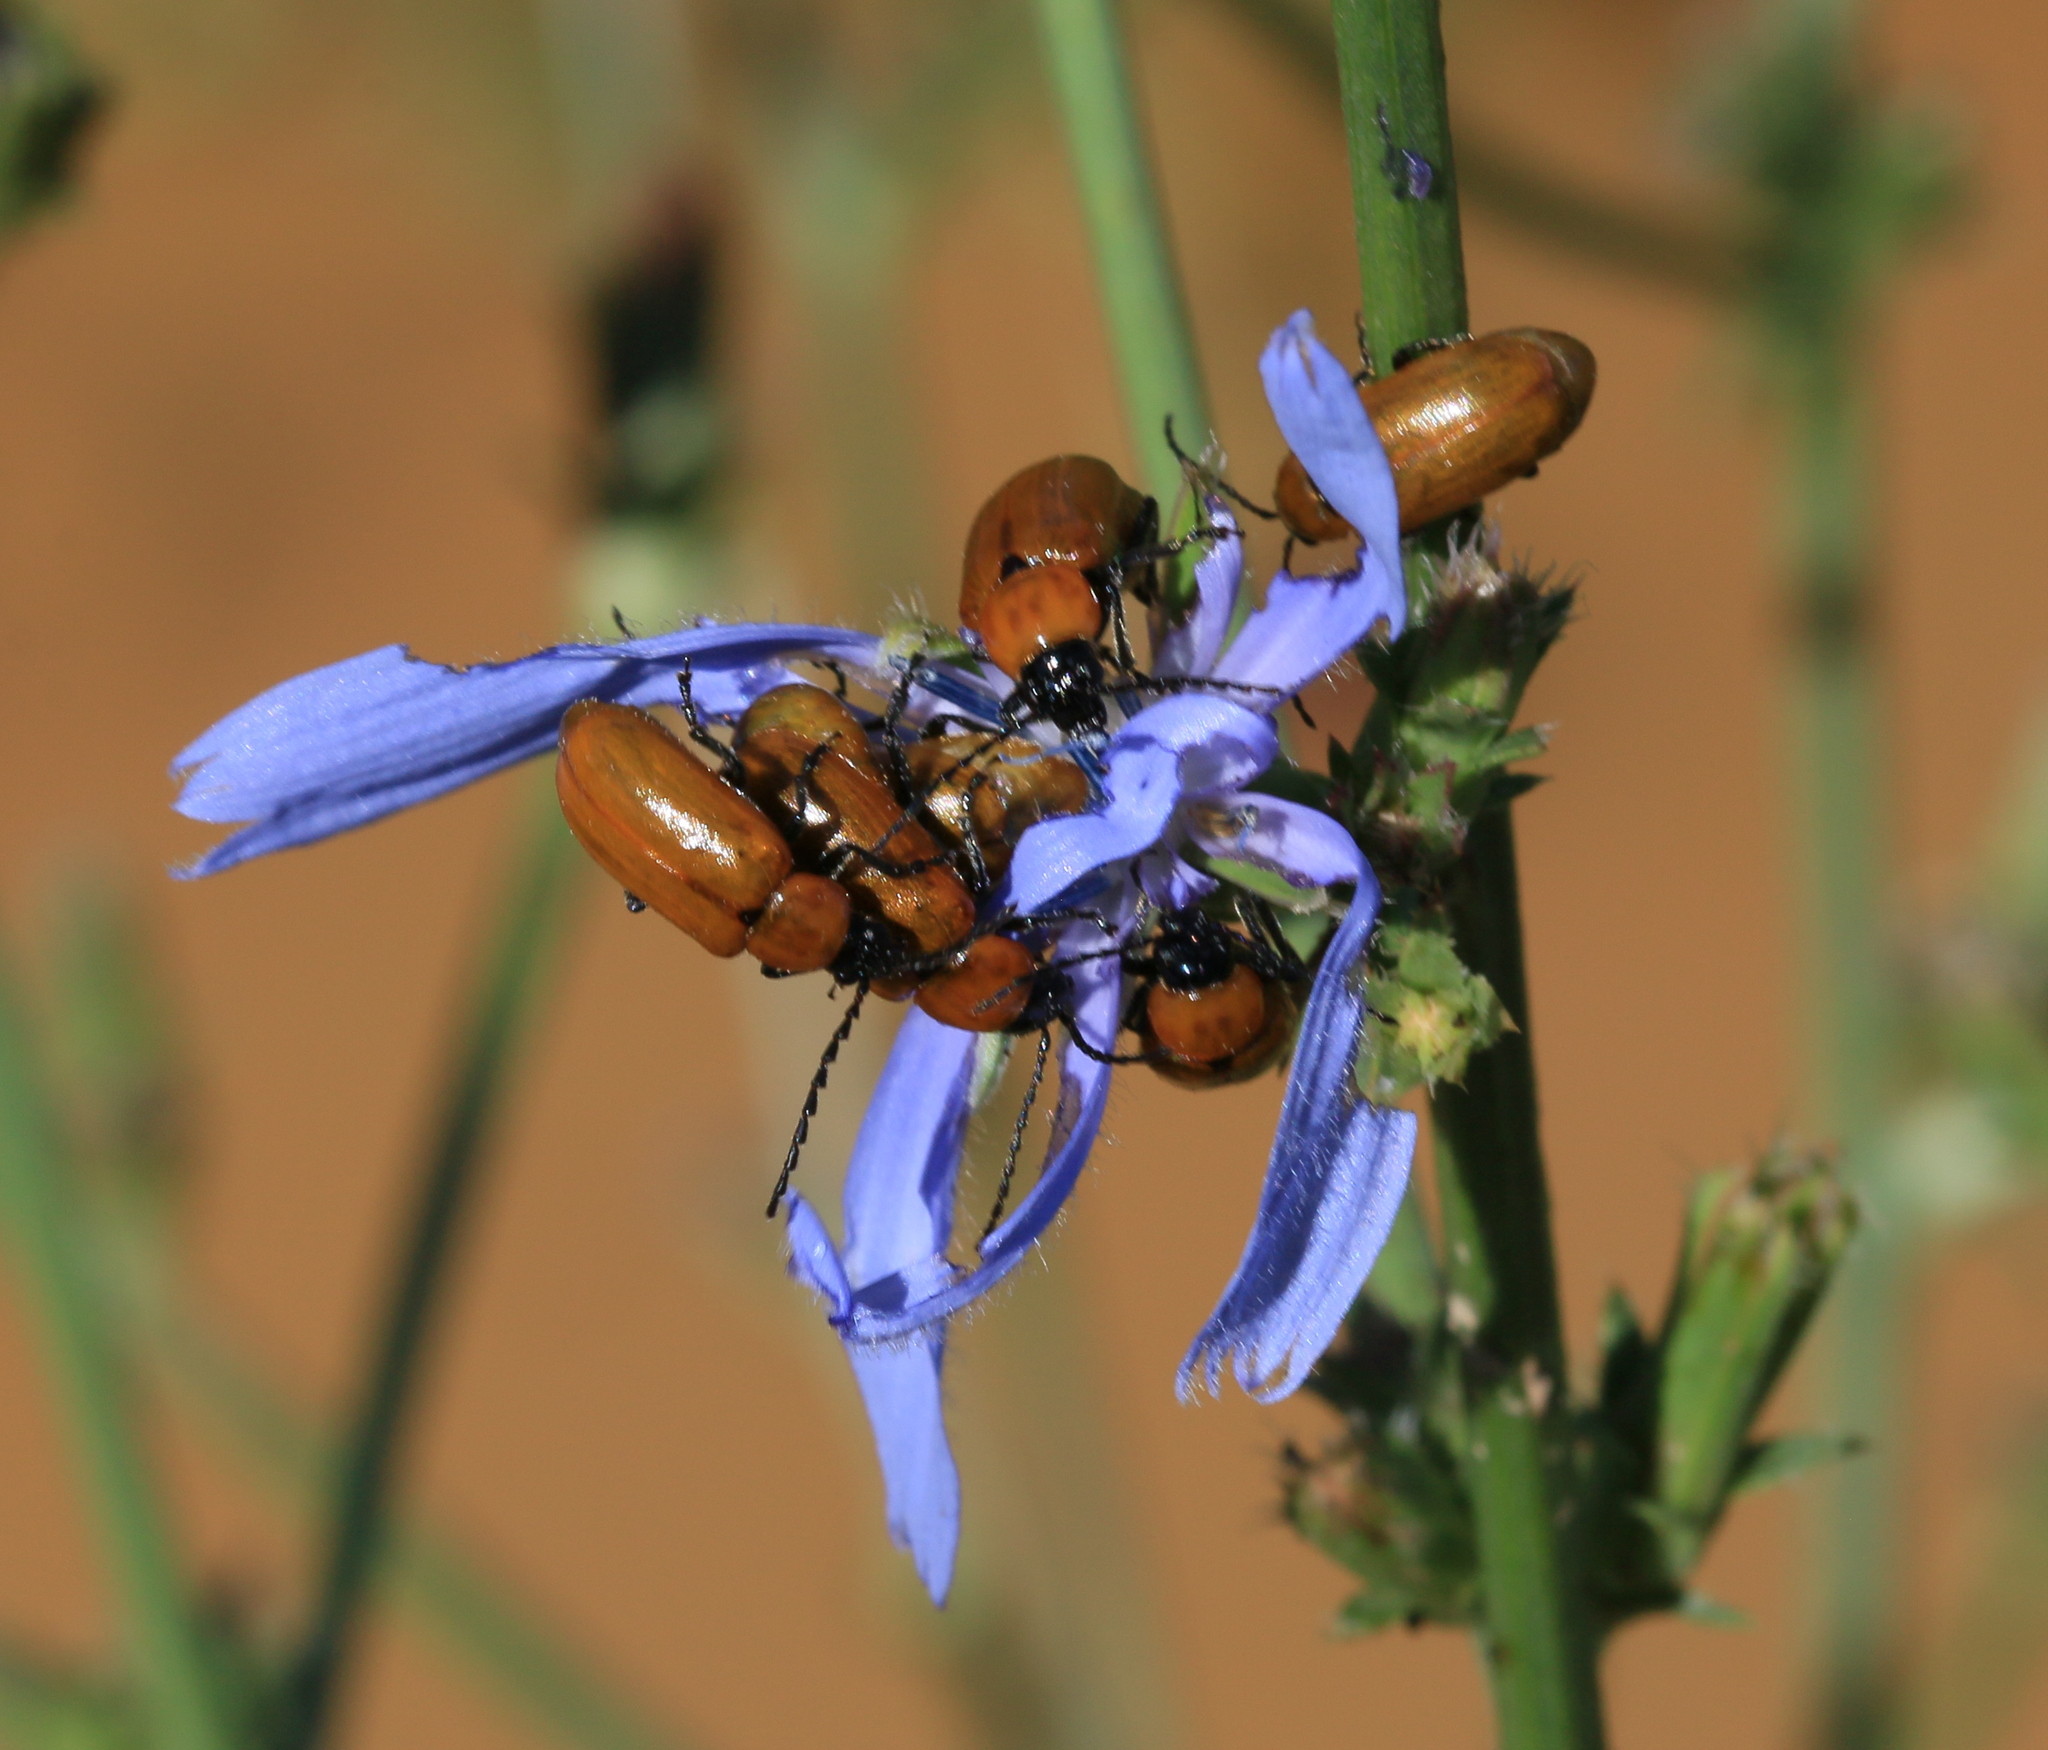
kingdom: Animalia
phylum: Arthropoda
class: Insecta
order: Coleoptera
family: Chrysomelidae
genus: Exosoma
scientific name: Exosoma lusitanicum
